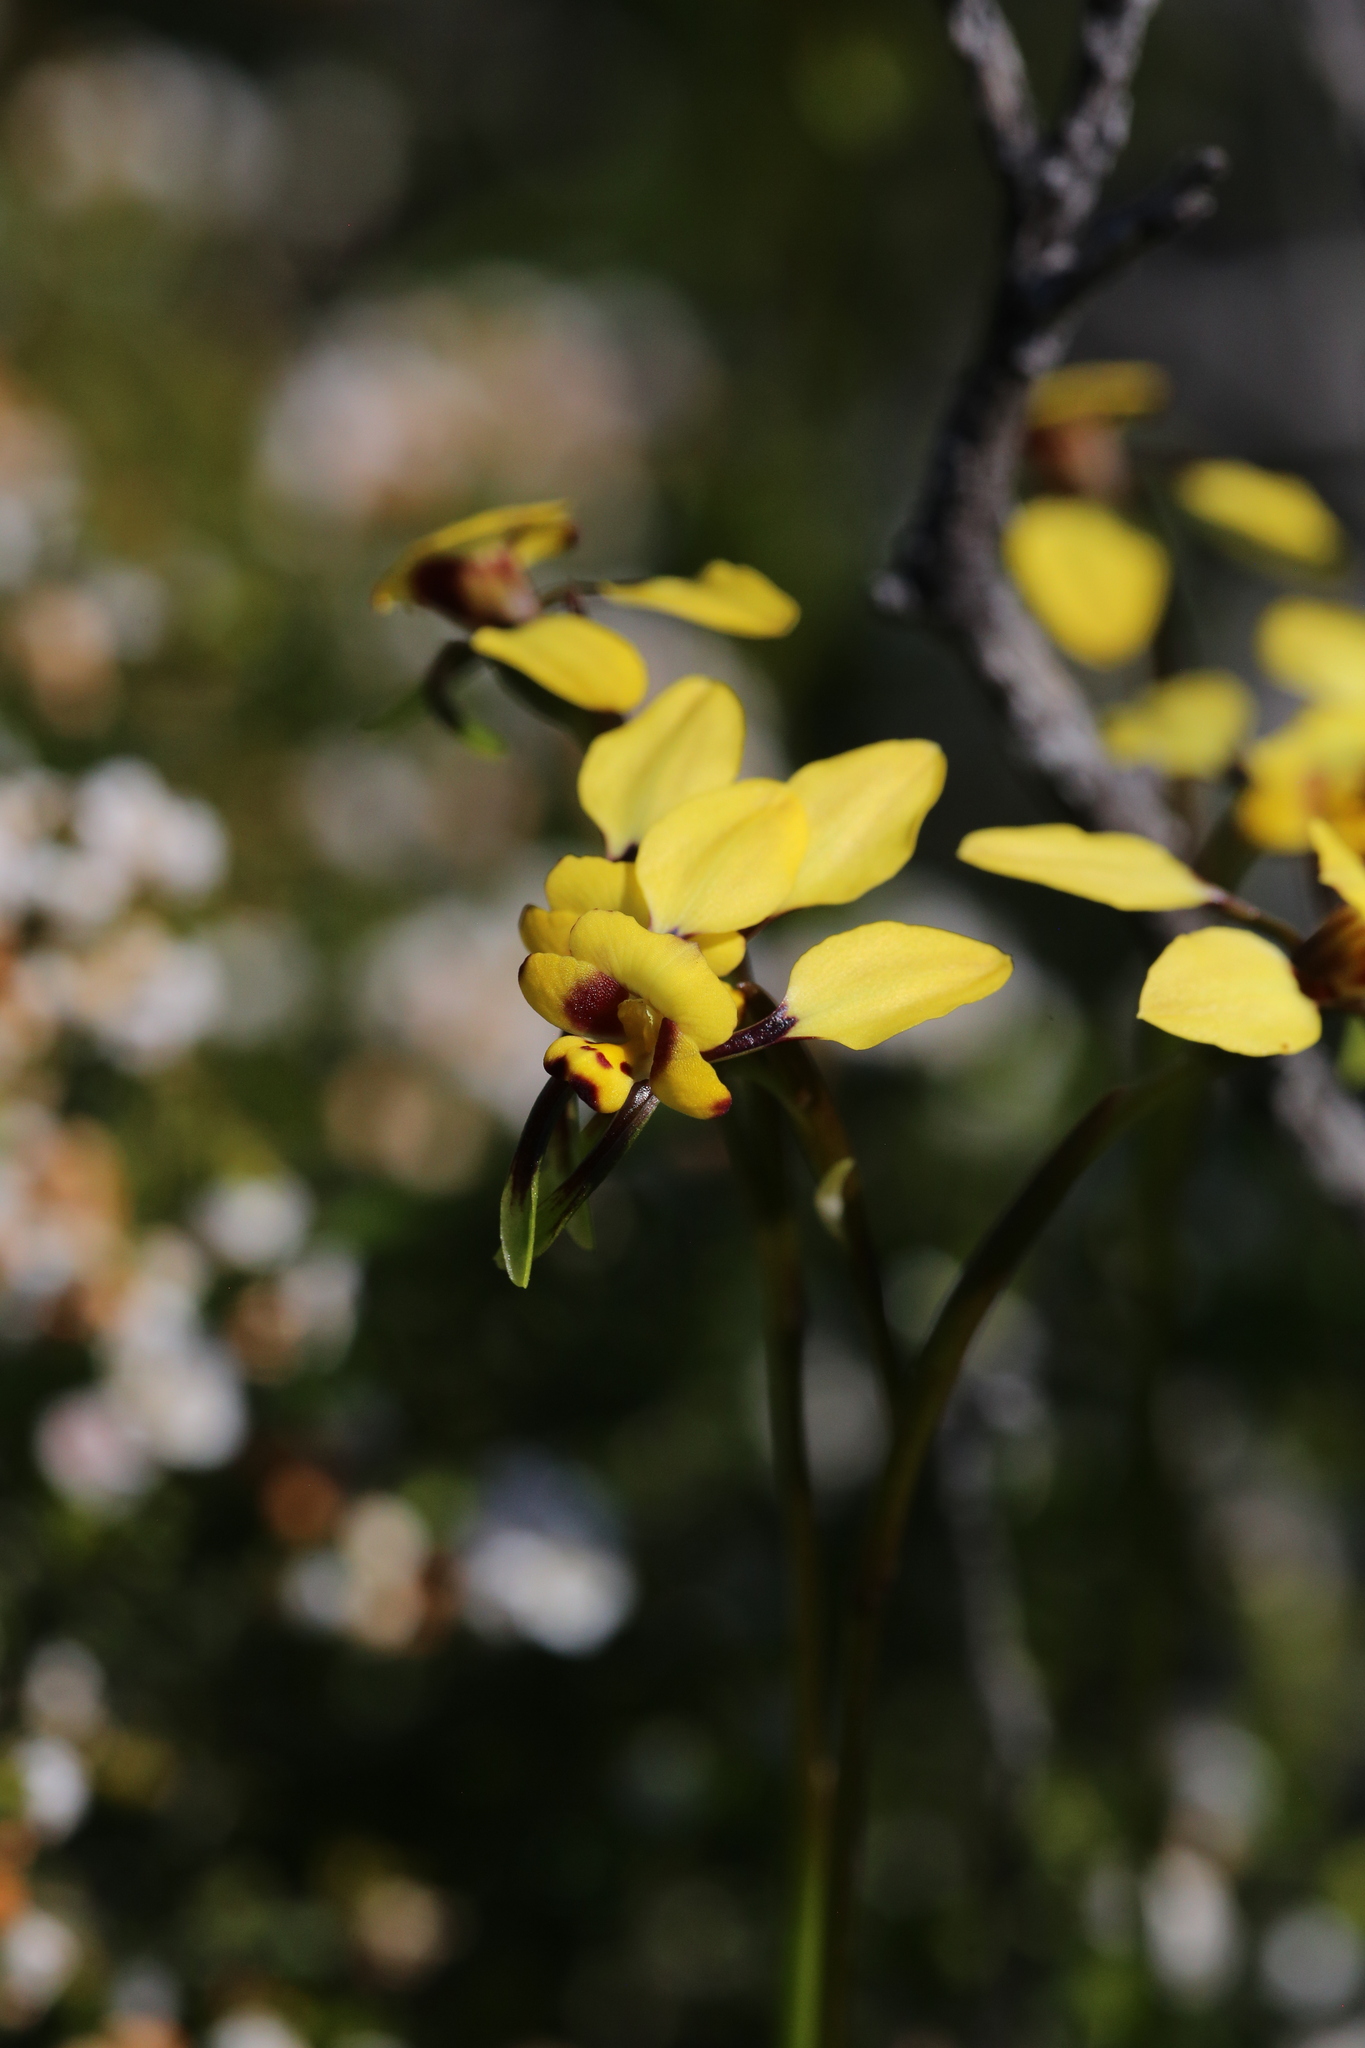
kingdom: Plantae
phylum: Tracheophyta
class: Liliopsida
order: Asparagales
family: Orchidaceae
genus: Diuris
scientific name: Diuris conspicillata
